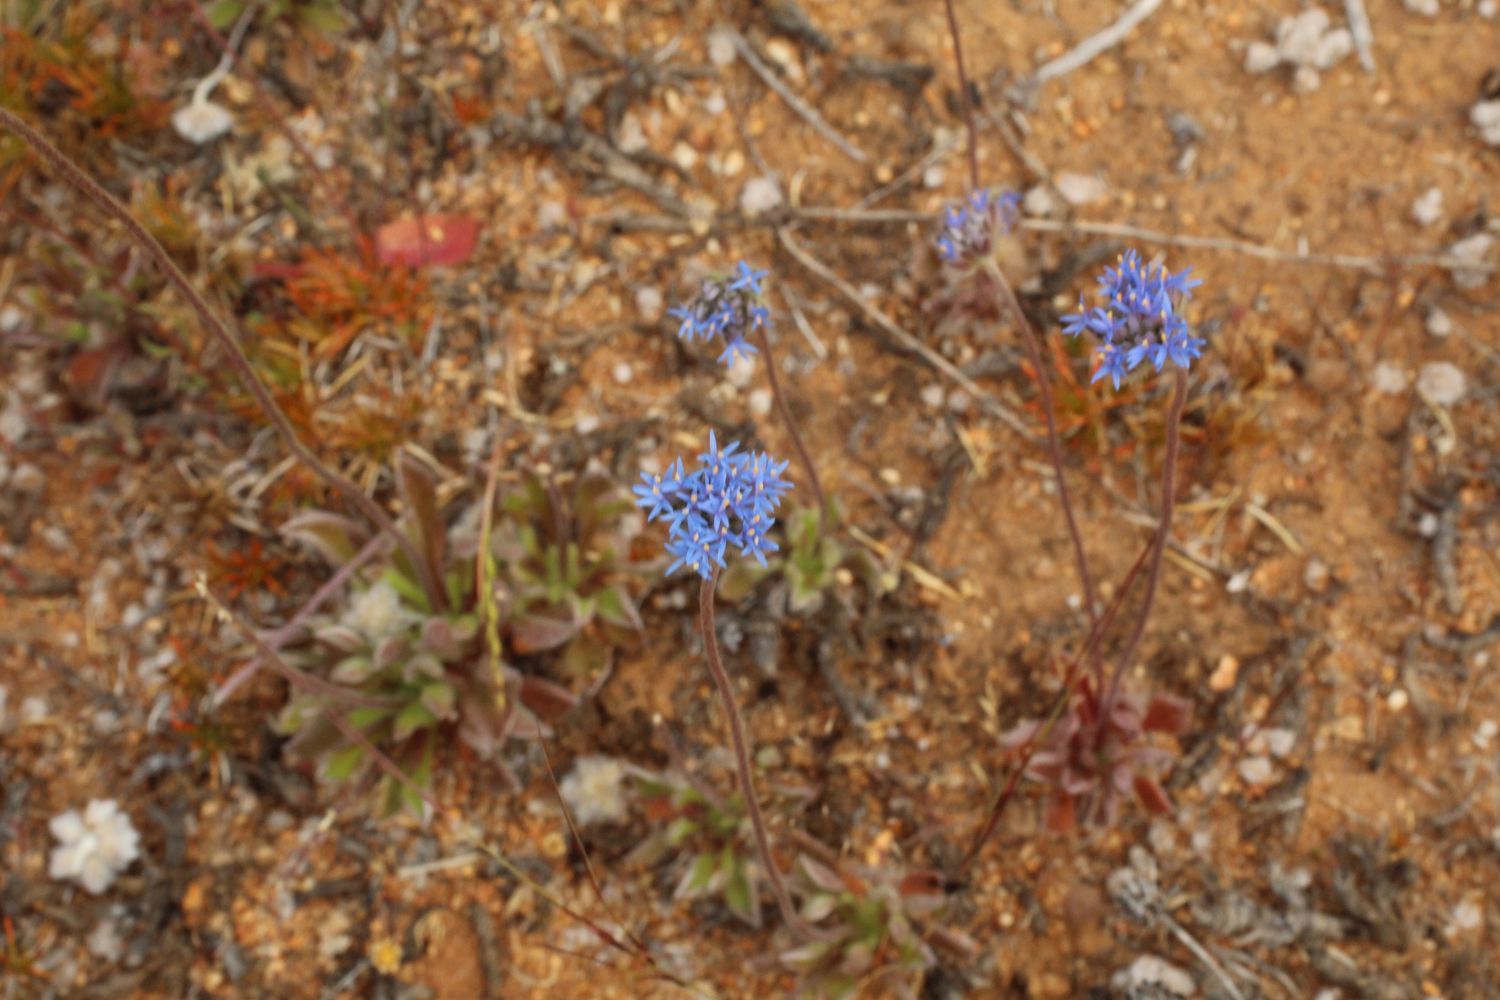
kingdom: Plantae
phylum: Tracheophyta
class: Magnoliopsida
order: Asterales
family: Goodeniaceae
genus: Brunonia
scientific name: Brunonia australis
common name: Blue pincushion
